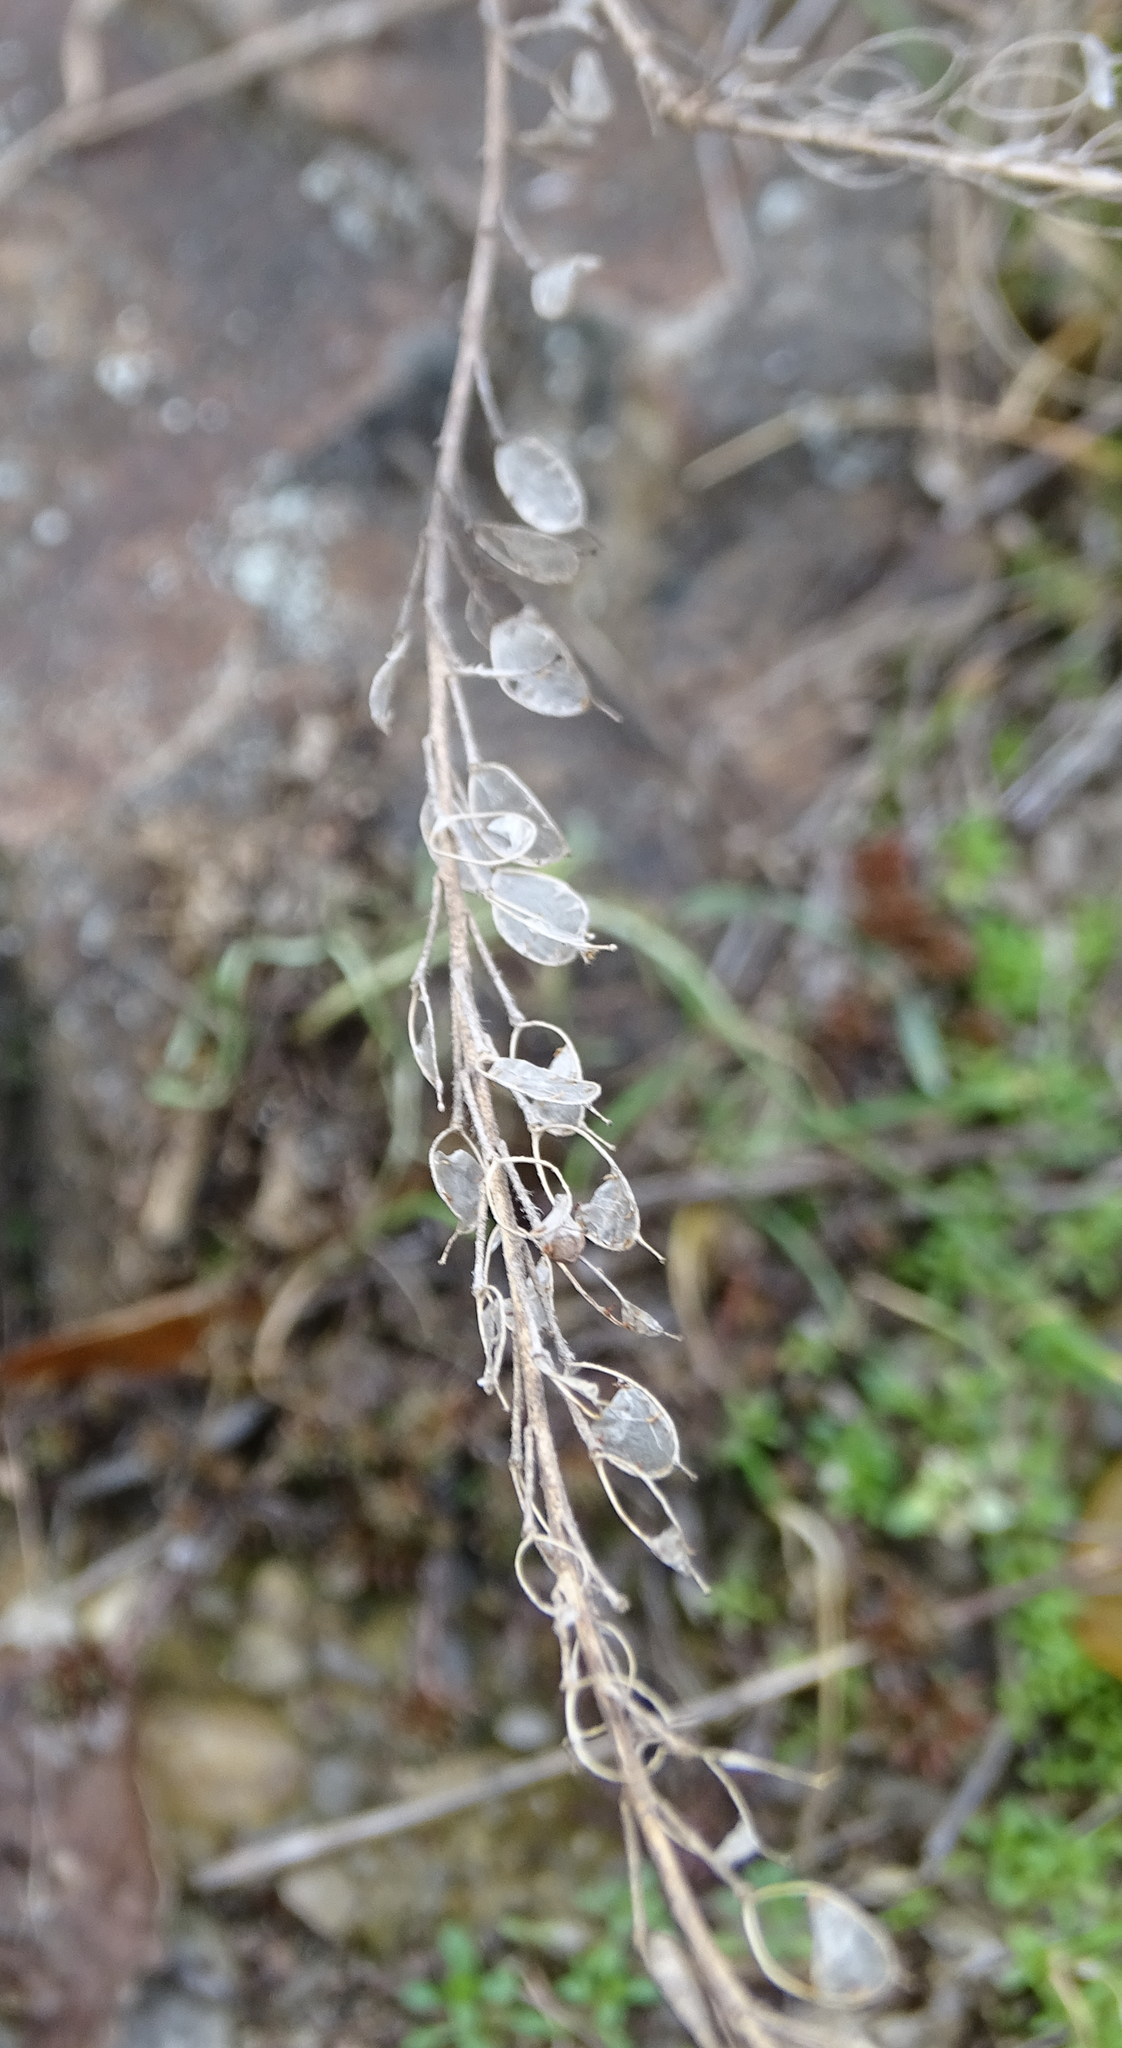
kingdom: Plantae
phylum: Tracheophyta
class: Magnoliopsida
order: Brassicales
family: Brassicaceae
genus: Berteroa
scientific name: Berteroa incana
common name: Hoary alison
